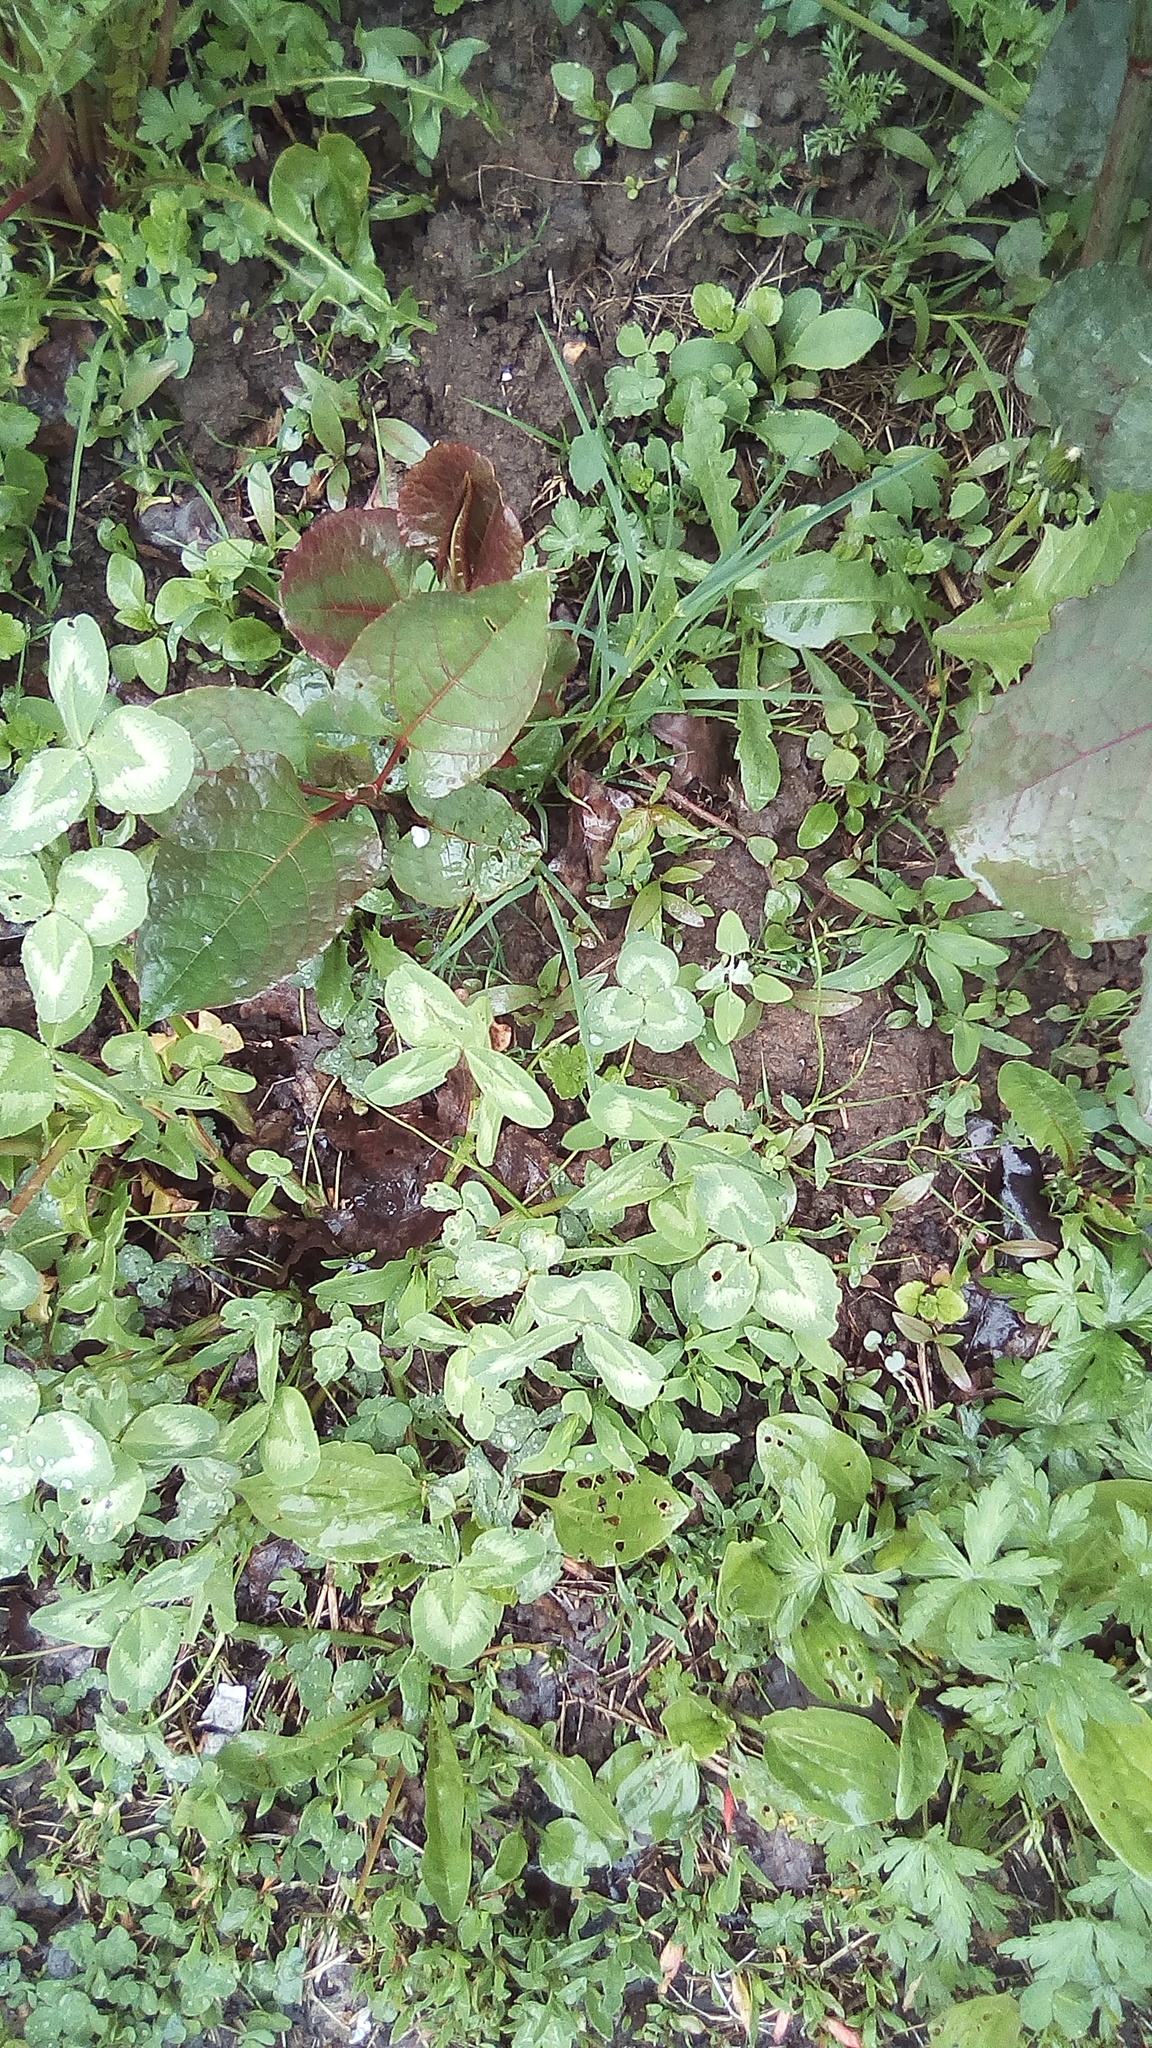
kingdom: Plantae
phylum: Tracheophyta
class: Magnoliopsida
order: Fabales
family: Fabaceae
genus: Trifolium
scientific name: Trifolium pratense
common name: Red clover
